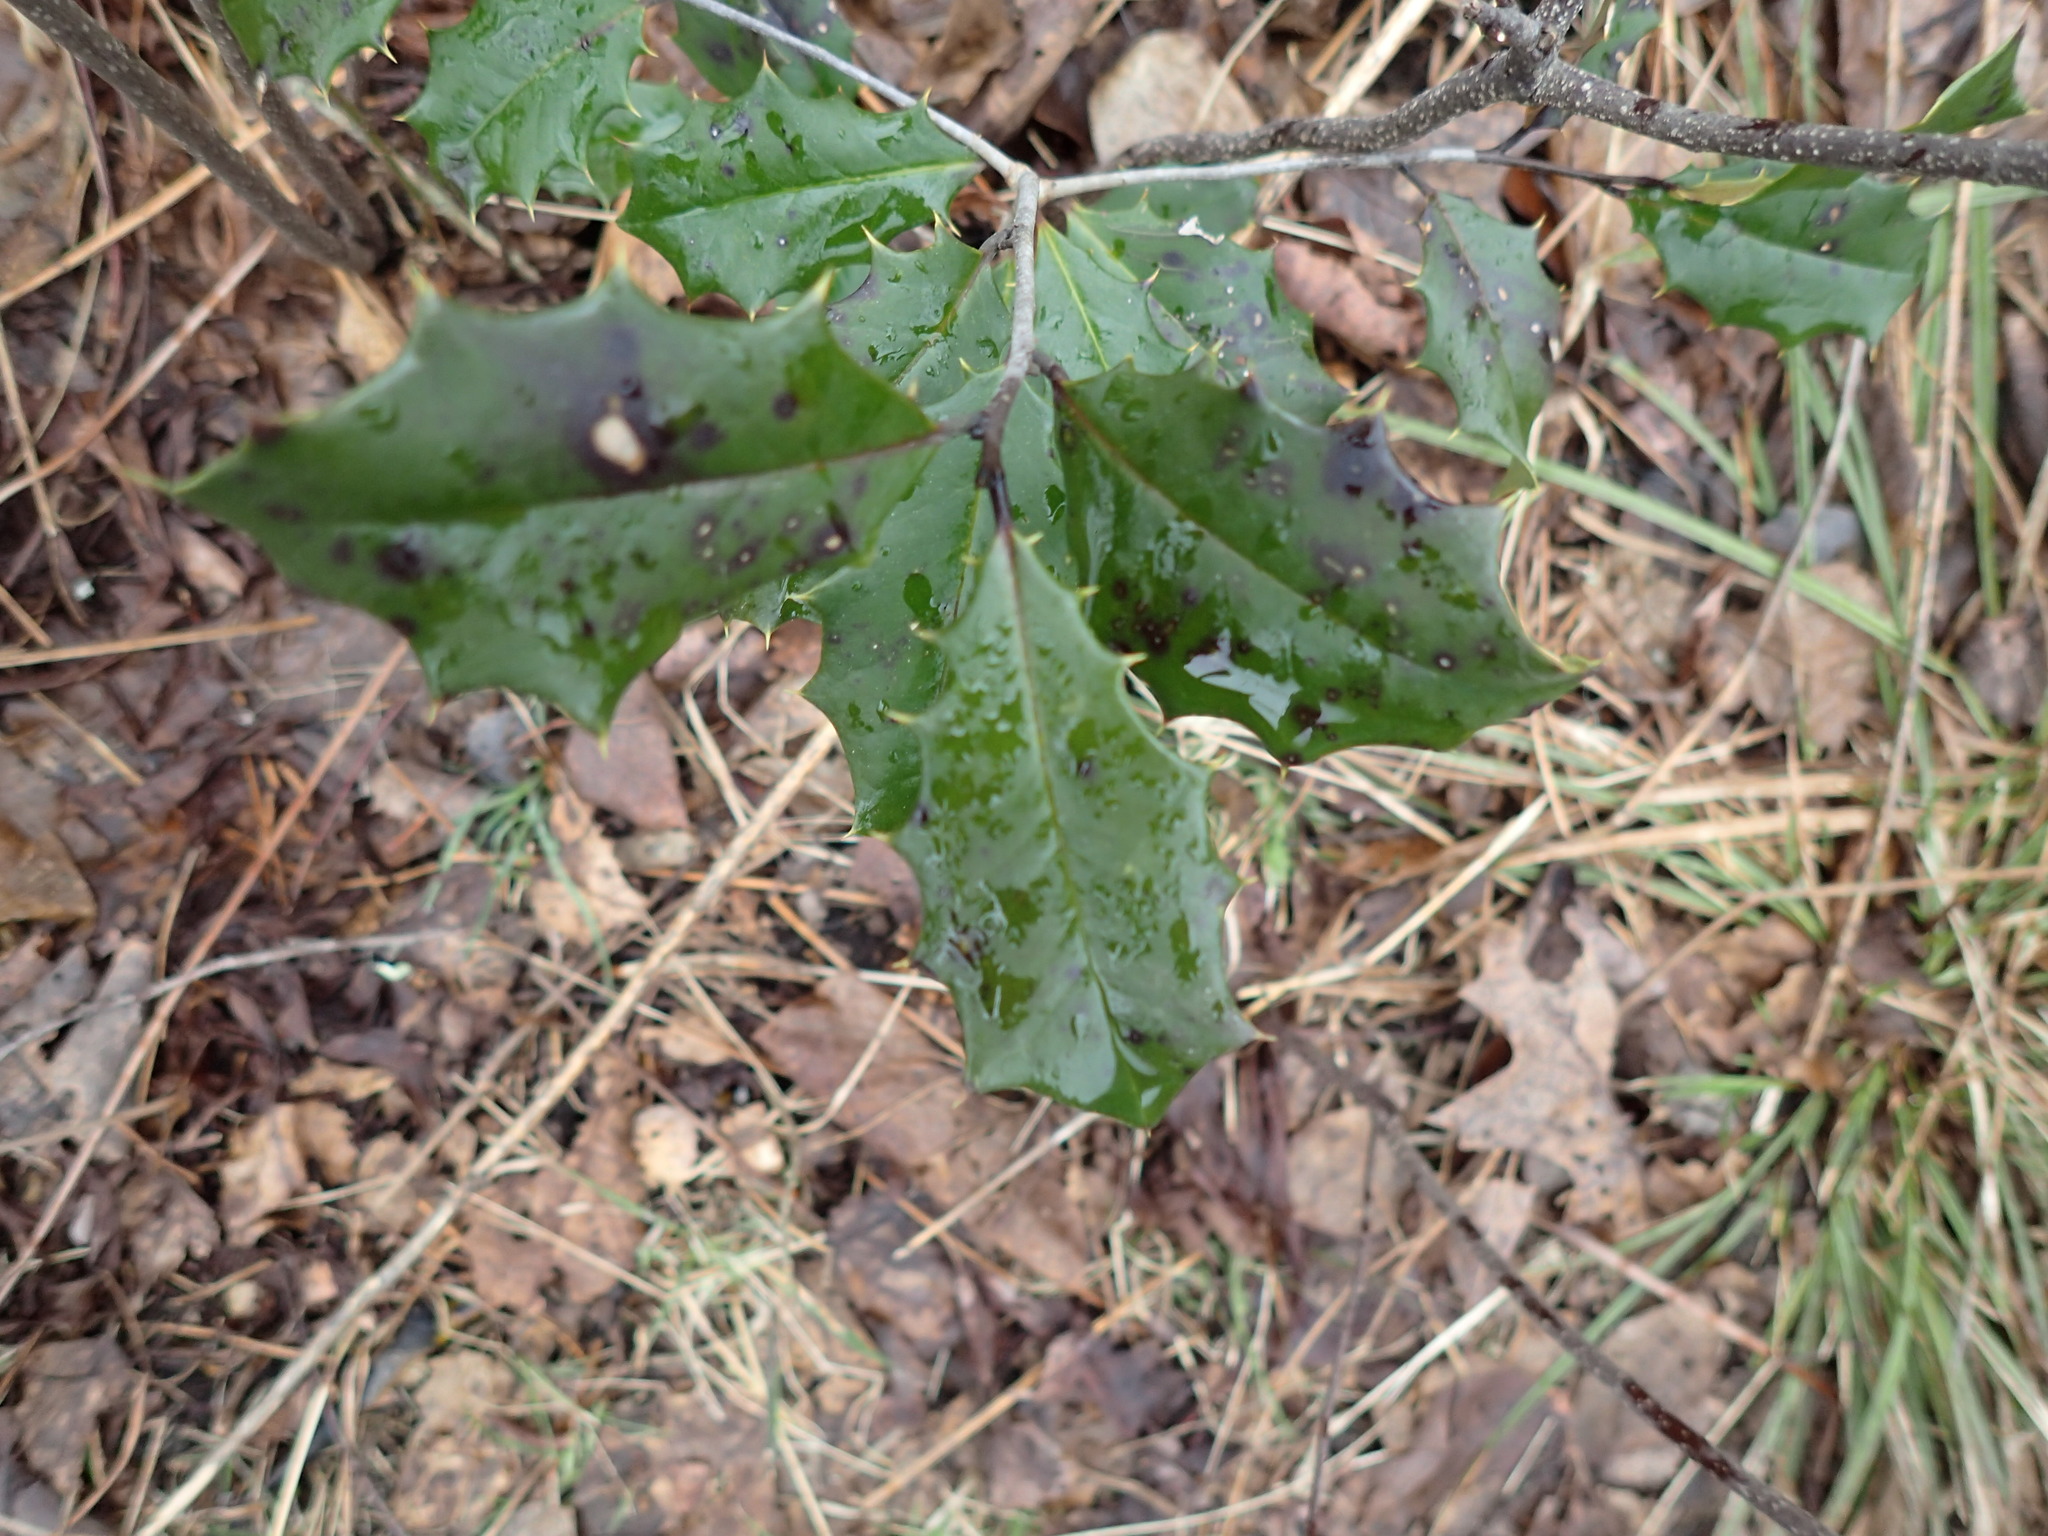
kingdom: Plantae
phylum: Tracheophyta
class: Magnoliopsida
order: Aquifoliales
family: Aquifoliaceae
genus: Ilex
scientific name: Ilex opaca
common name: American holly
